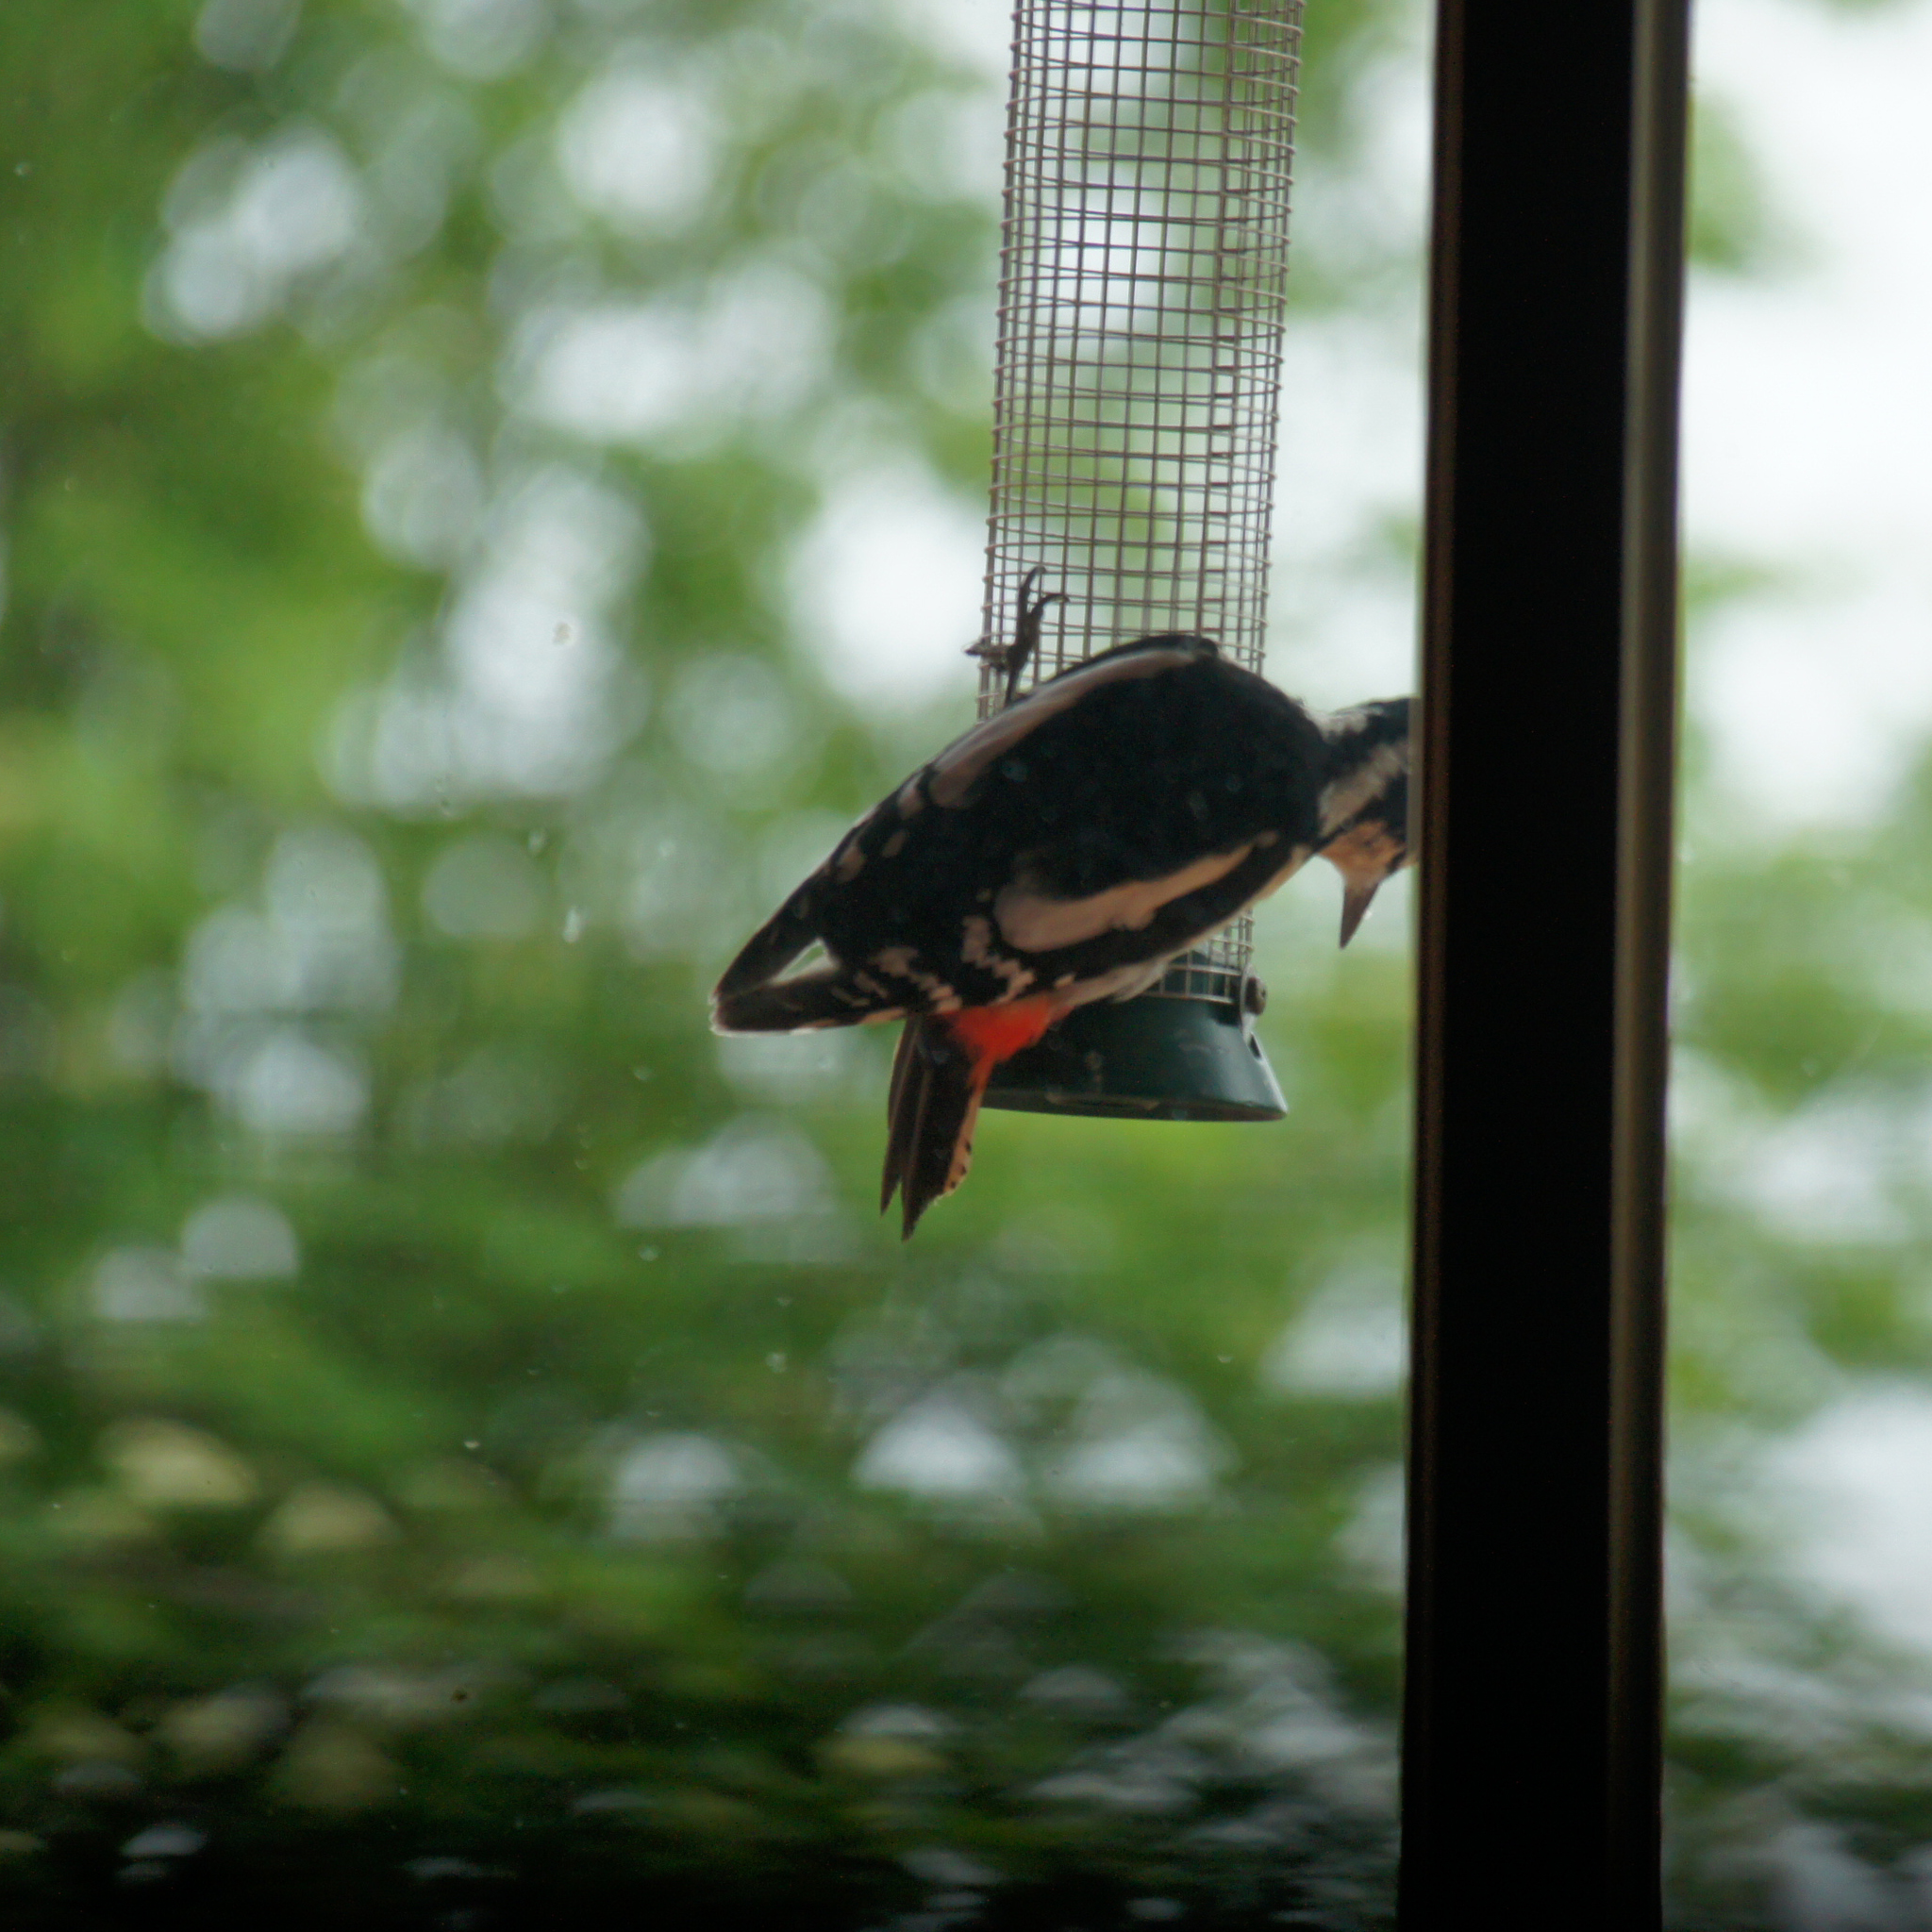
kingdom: Animalia
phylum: Chordata
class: Aves
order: Piciformes
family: Picidae
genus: Dendrocopos
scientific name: Dendrocopos major
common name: Great spotted woodpecker
